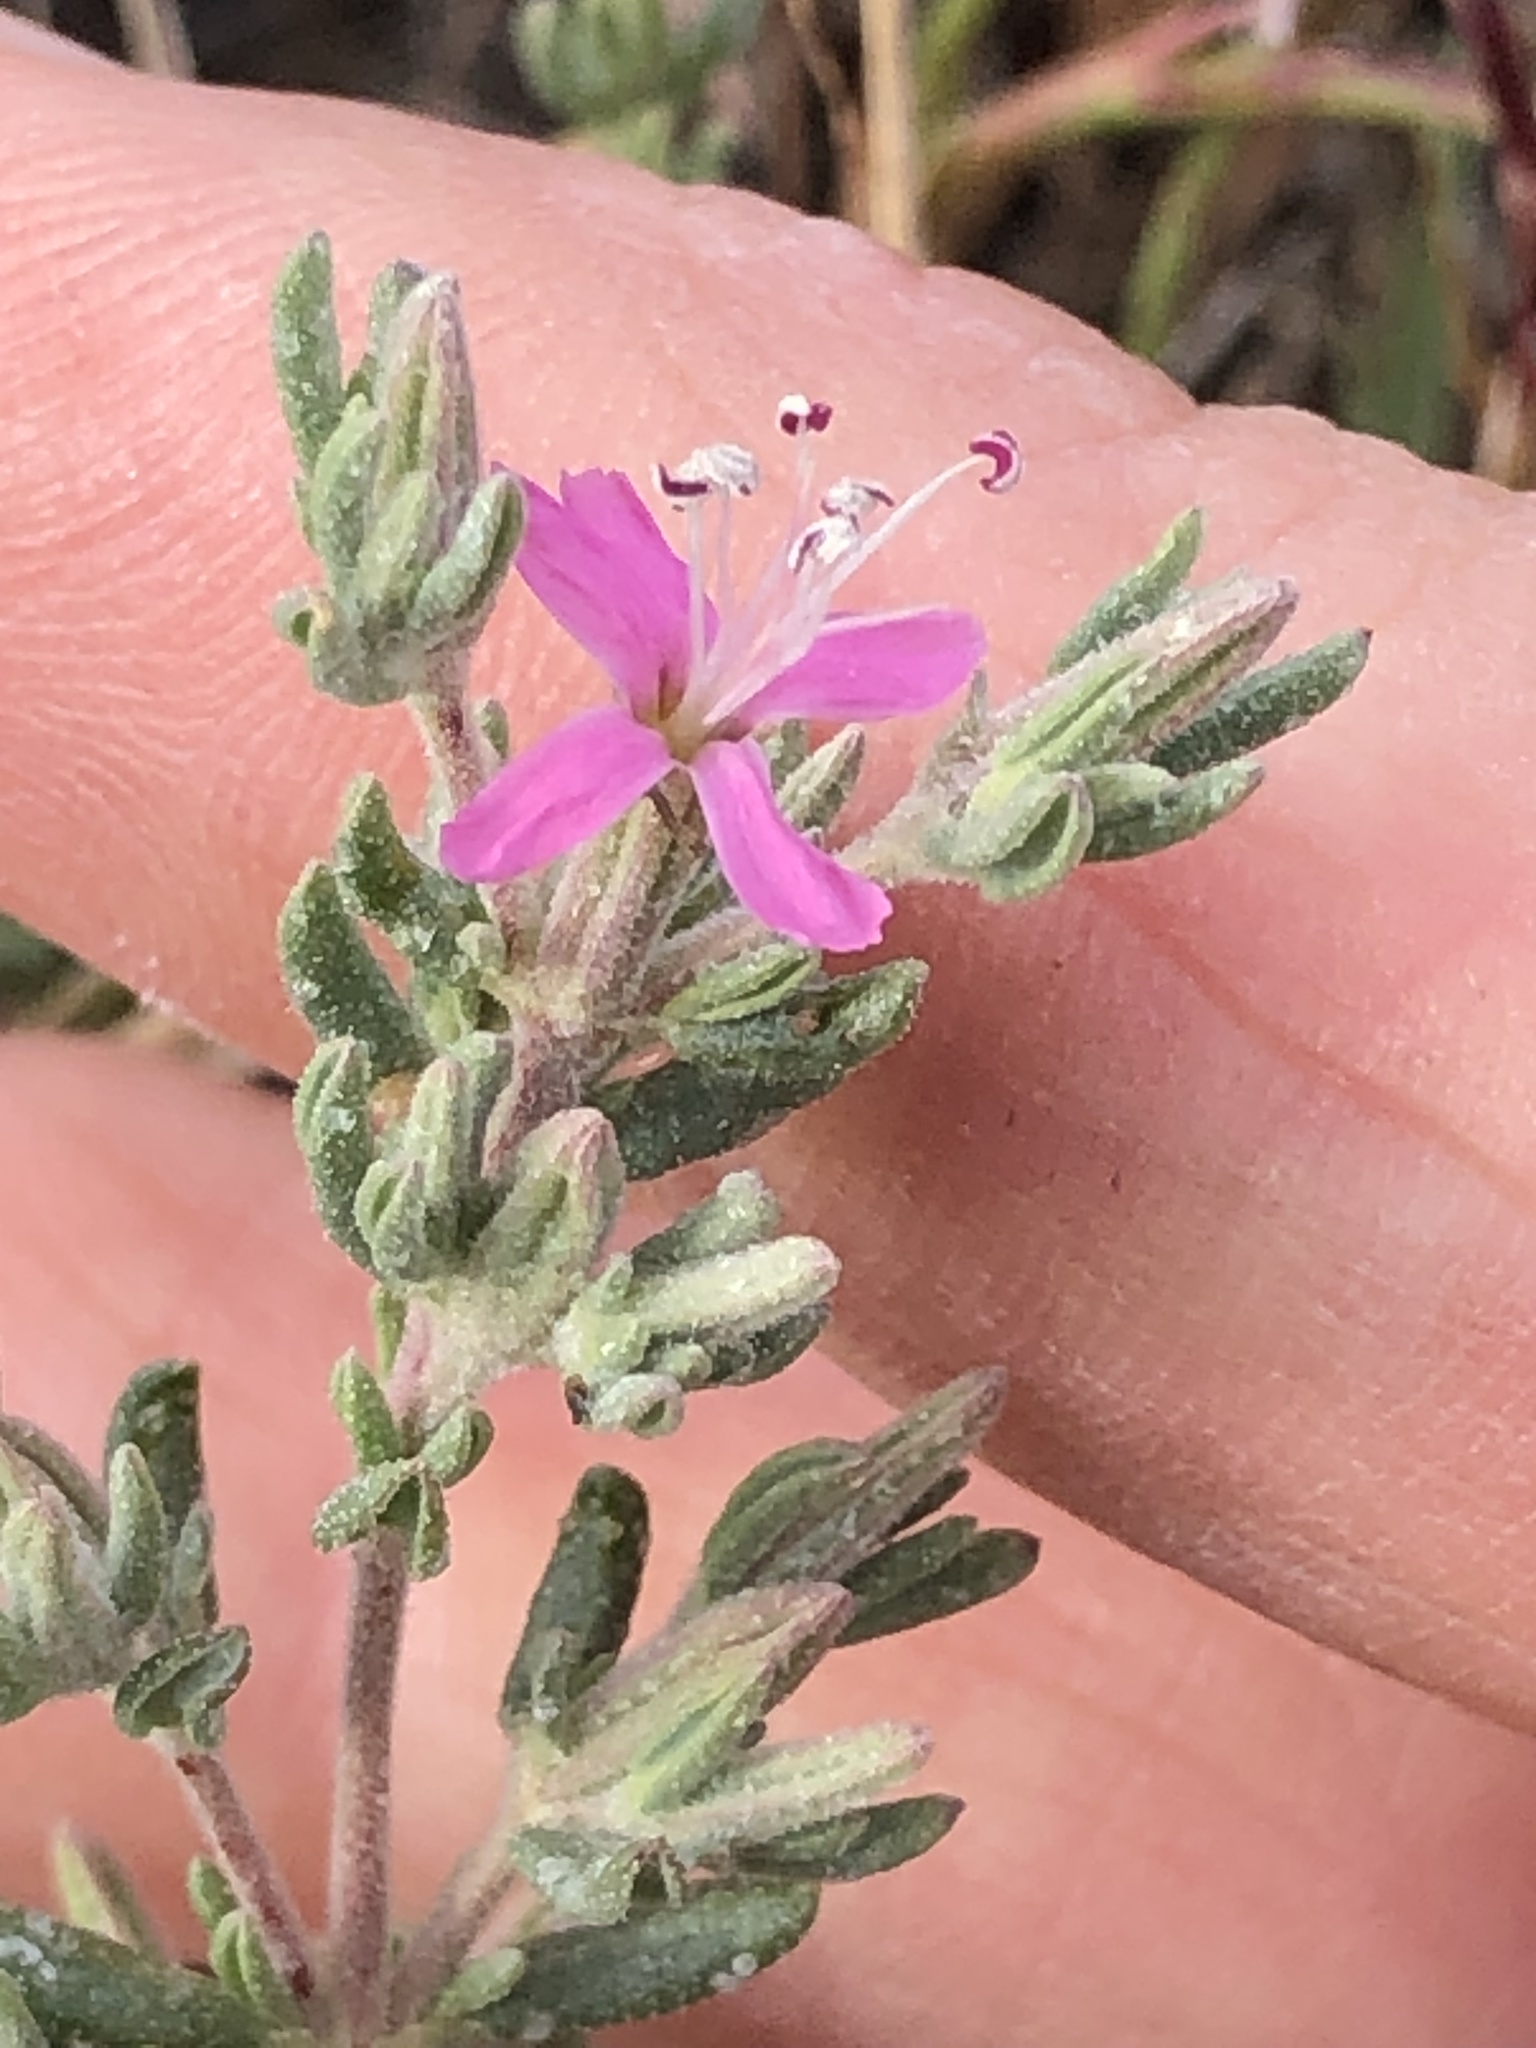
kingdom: Plantae
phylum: Tracheophyta
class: Magnoliopsida
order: Caryophyllales
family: Frankeniaceae
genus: Frankenia
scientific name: Frankenia salina
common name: Alkali seaheath
